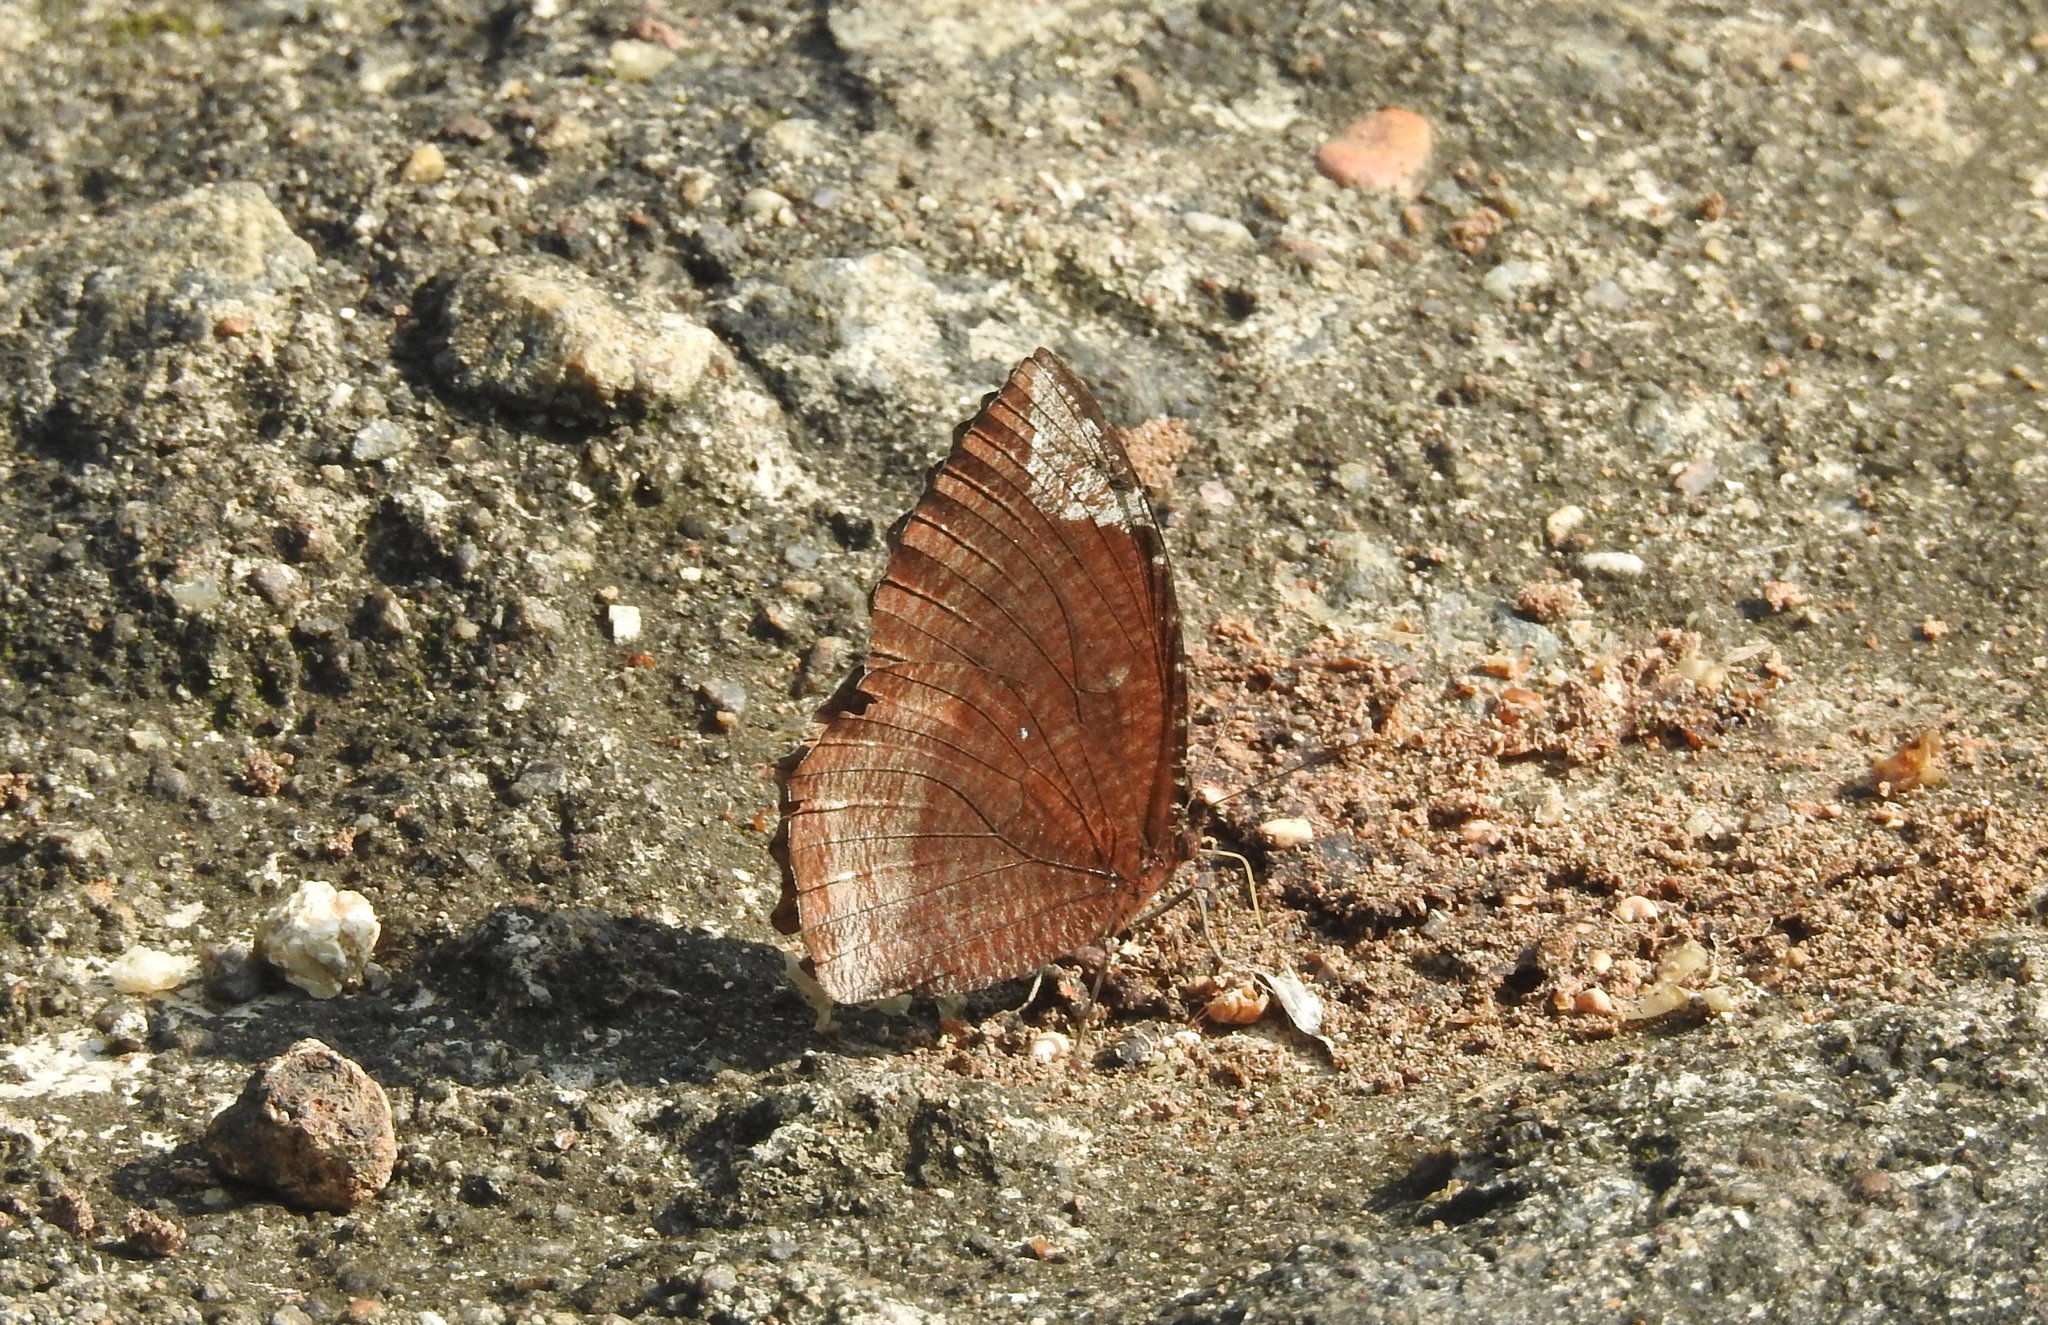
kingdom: Animalia
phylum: Arthropoda
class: Insecta
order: Lepidoptera
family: Nymphalidae
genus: Elymnias
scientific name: Elymnias hypermnestra
